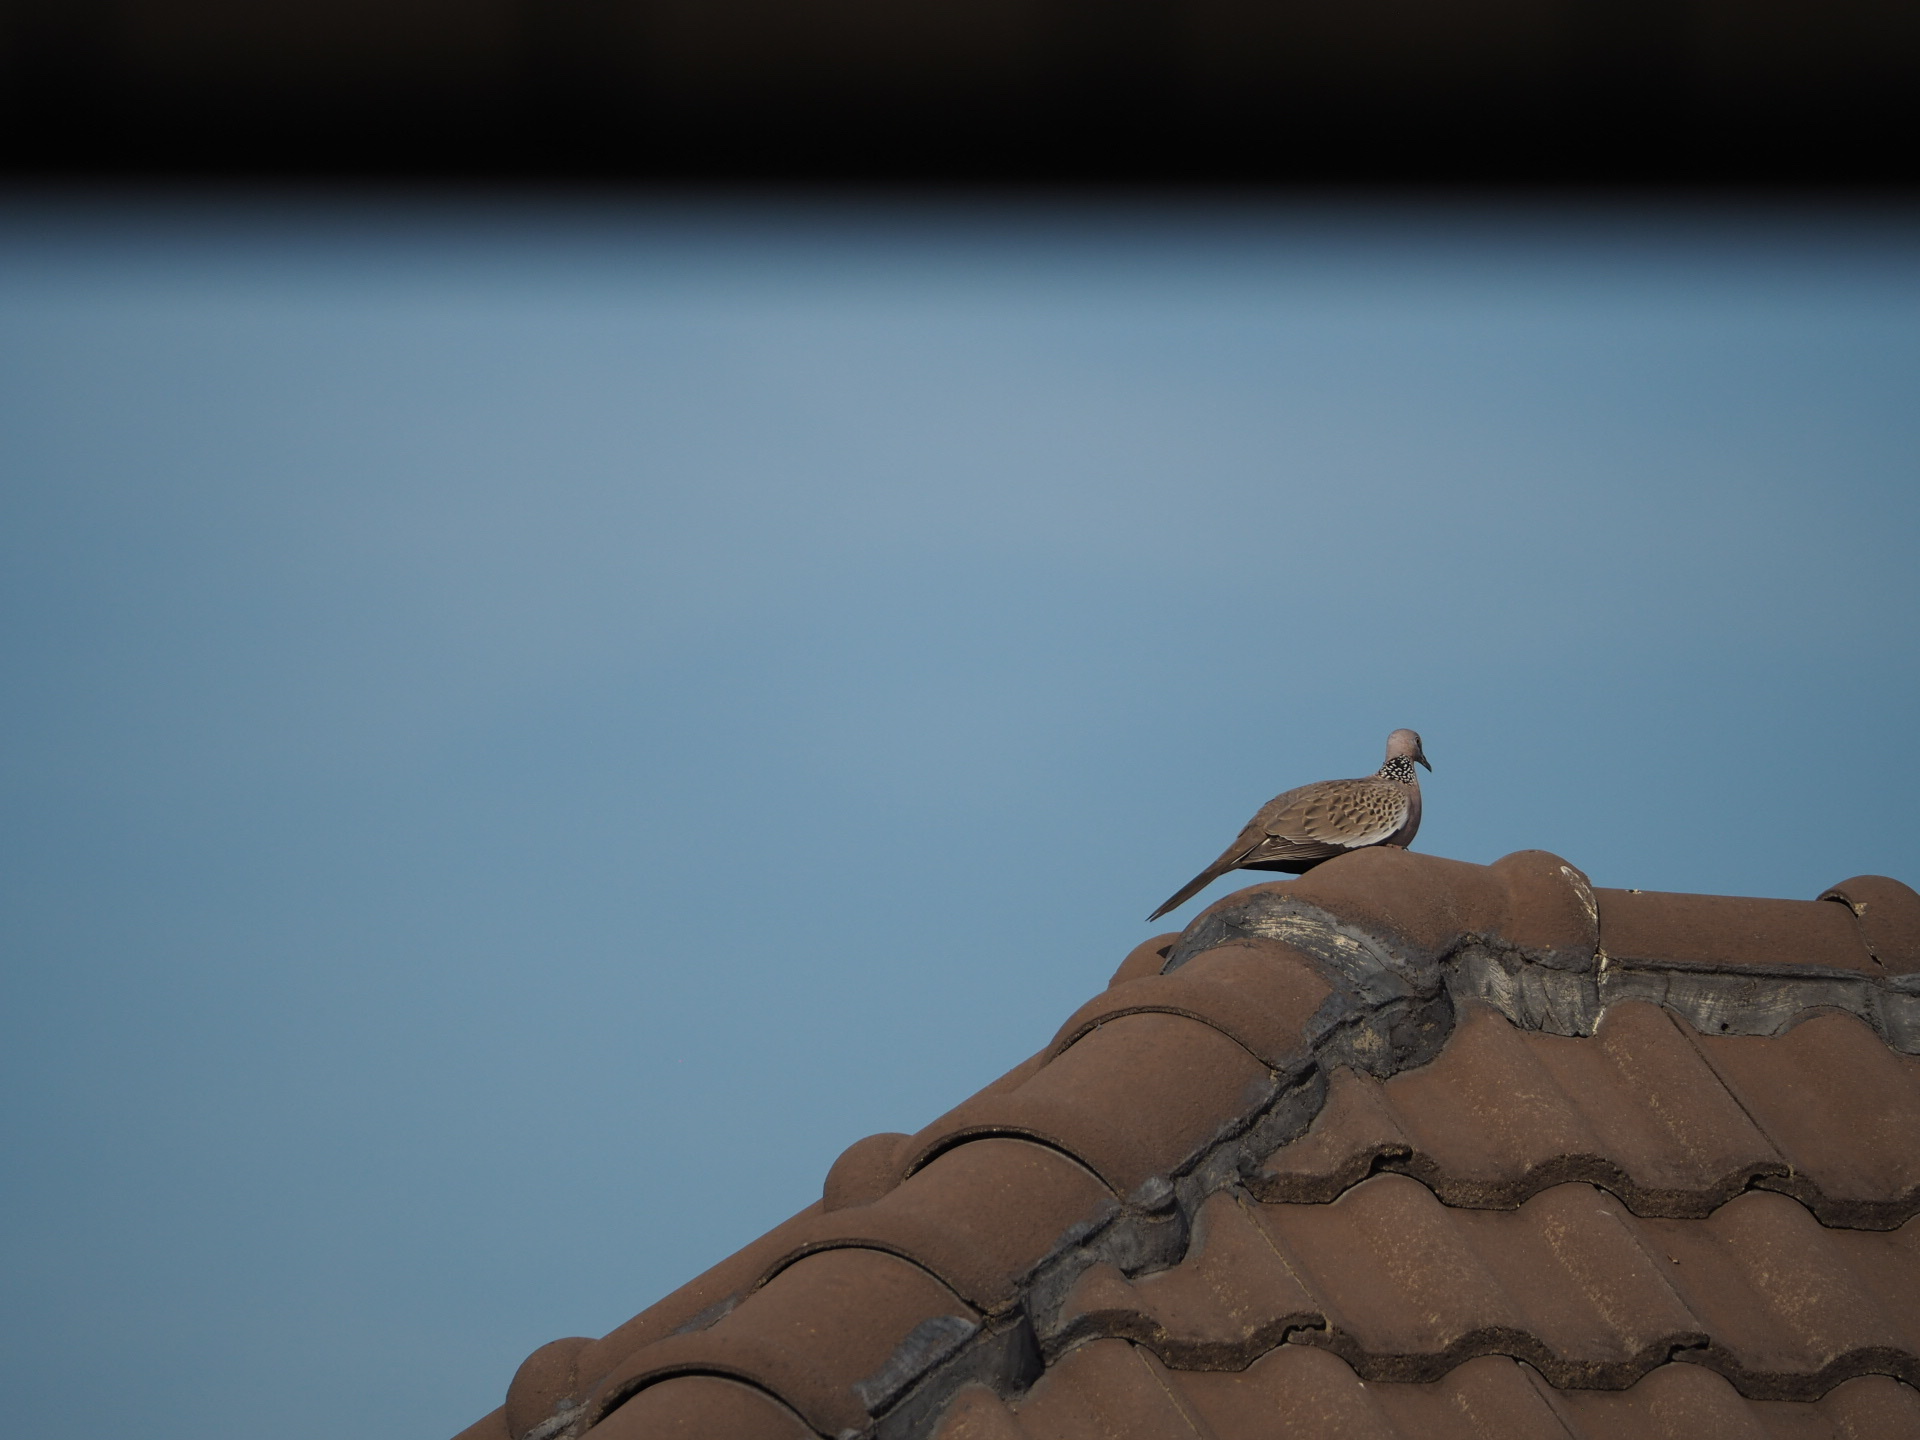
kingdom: Animalia
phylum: Chordata
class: Aves
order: Columbiformes
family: Columbidae
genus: Spilopelia
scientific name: Spilopelia chinensis
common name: Spotted dove
